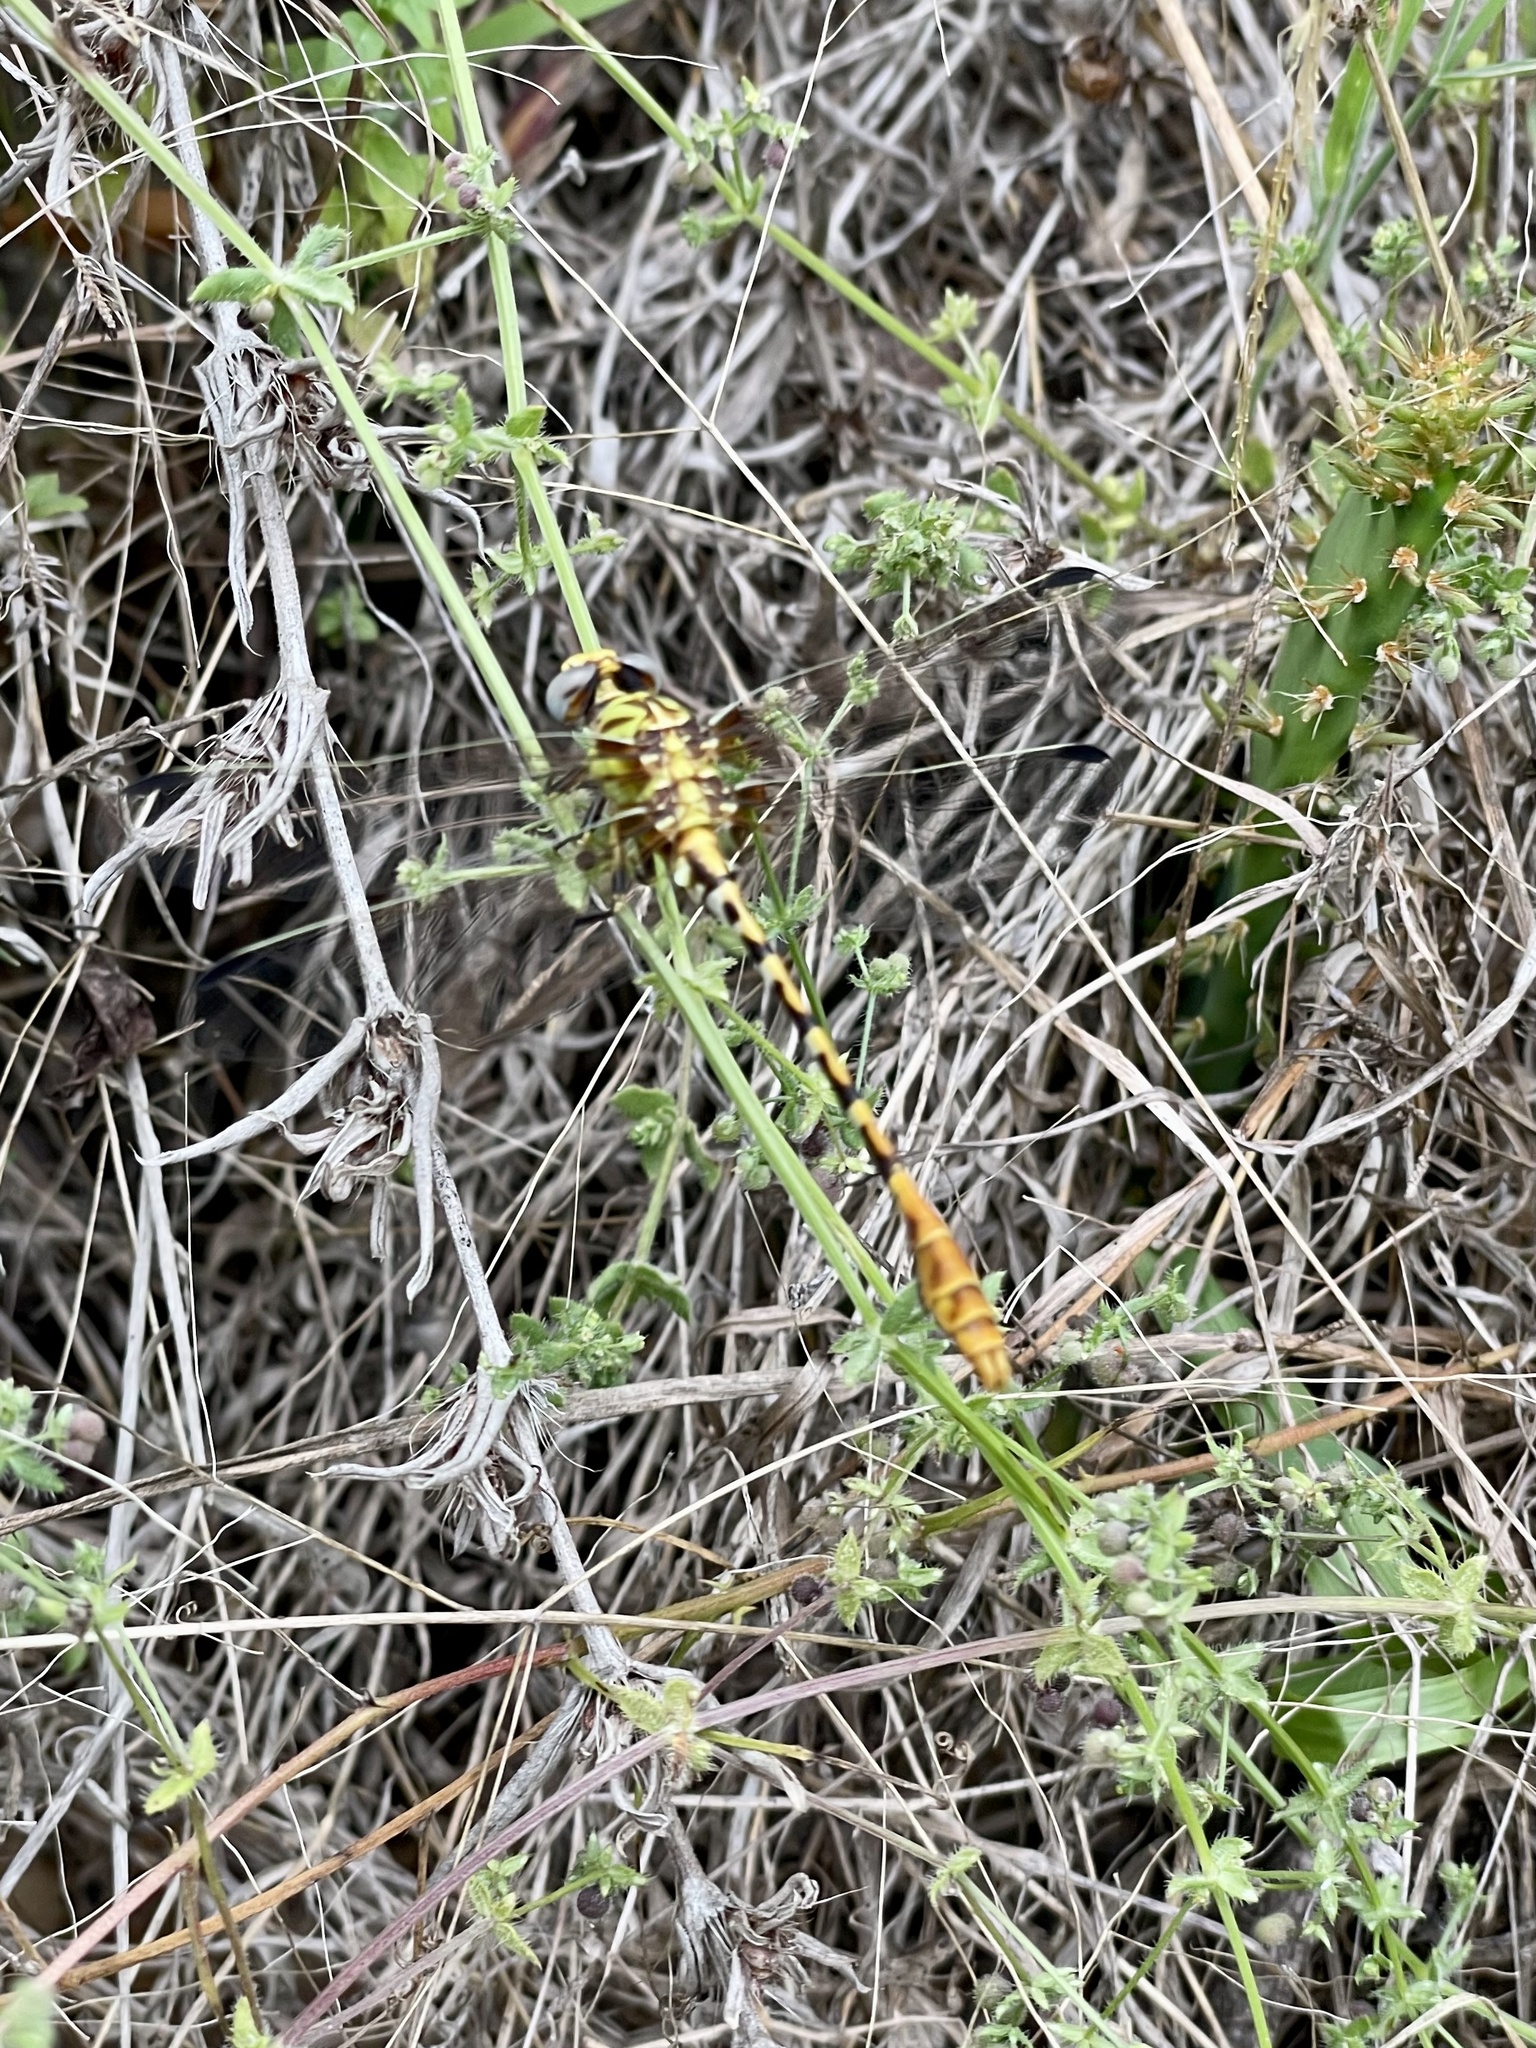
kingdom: Animalia
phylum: Arthropoda
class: Insecta
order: Odonata
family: Gomphidae
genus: Erpetogomphus
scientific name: Erpetogomphus designatus
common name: Eastern ringtail
